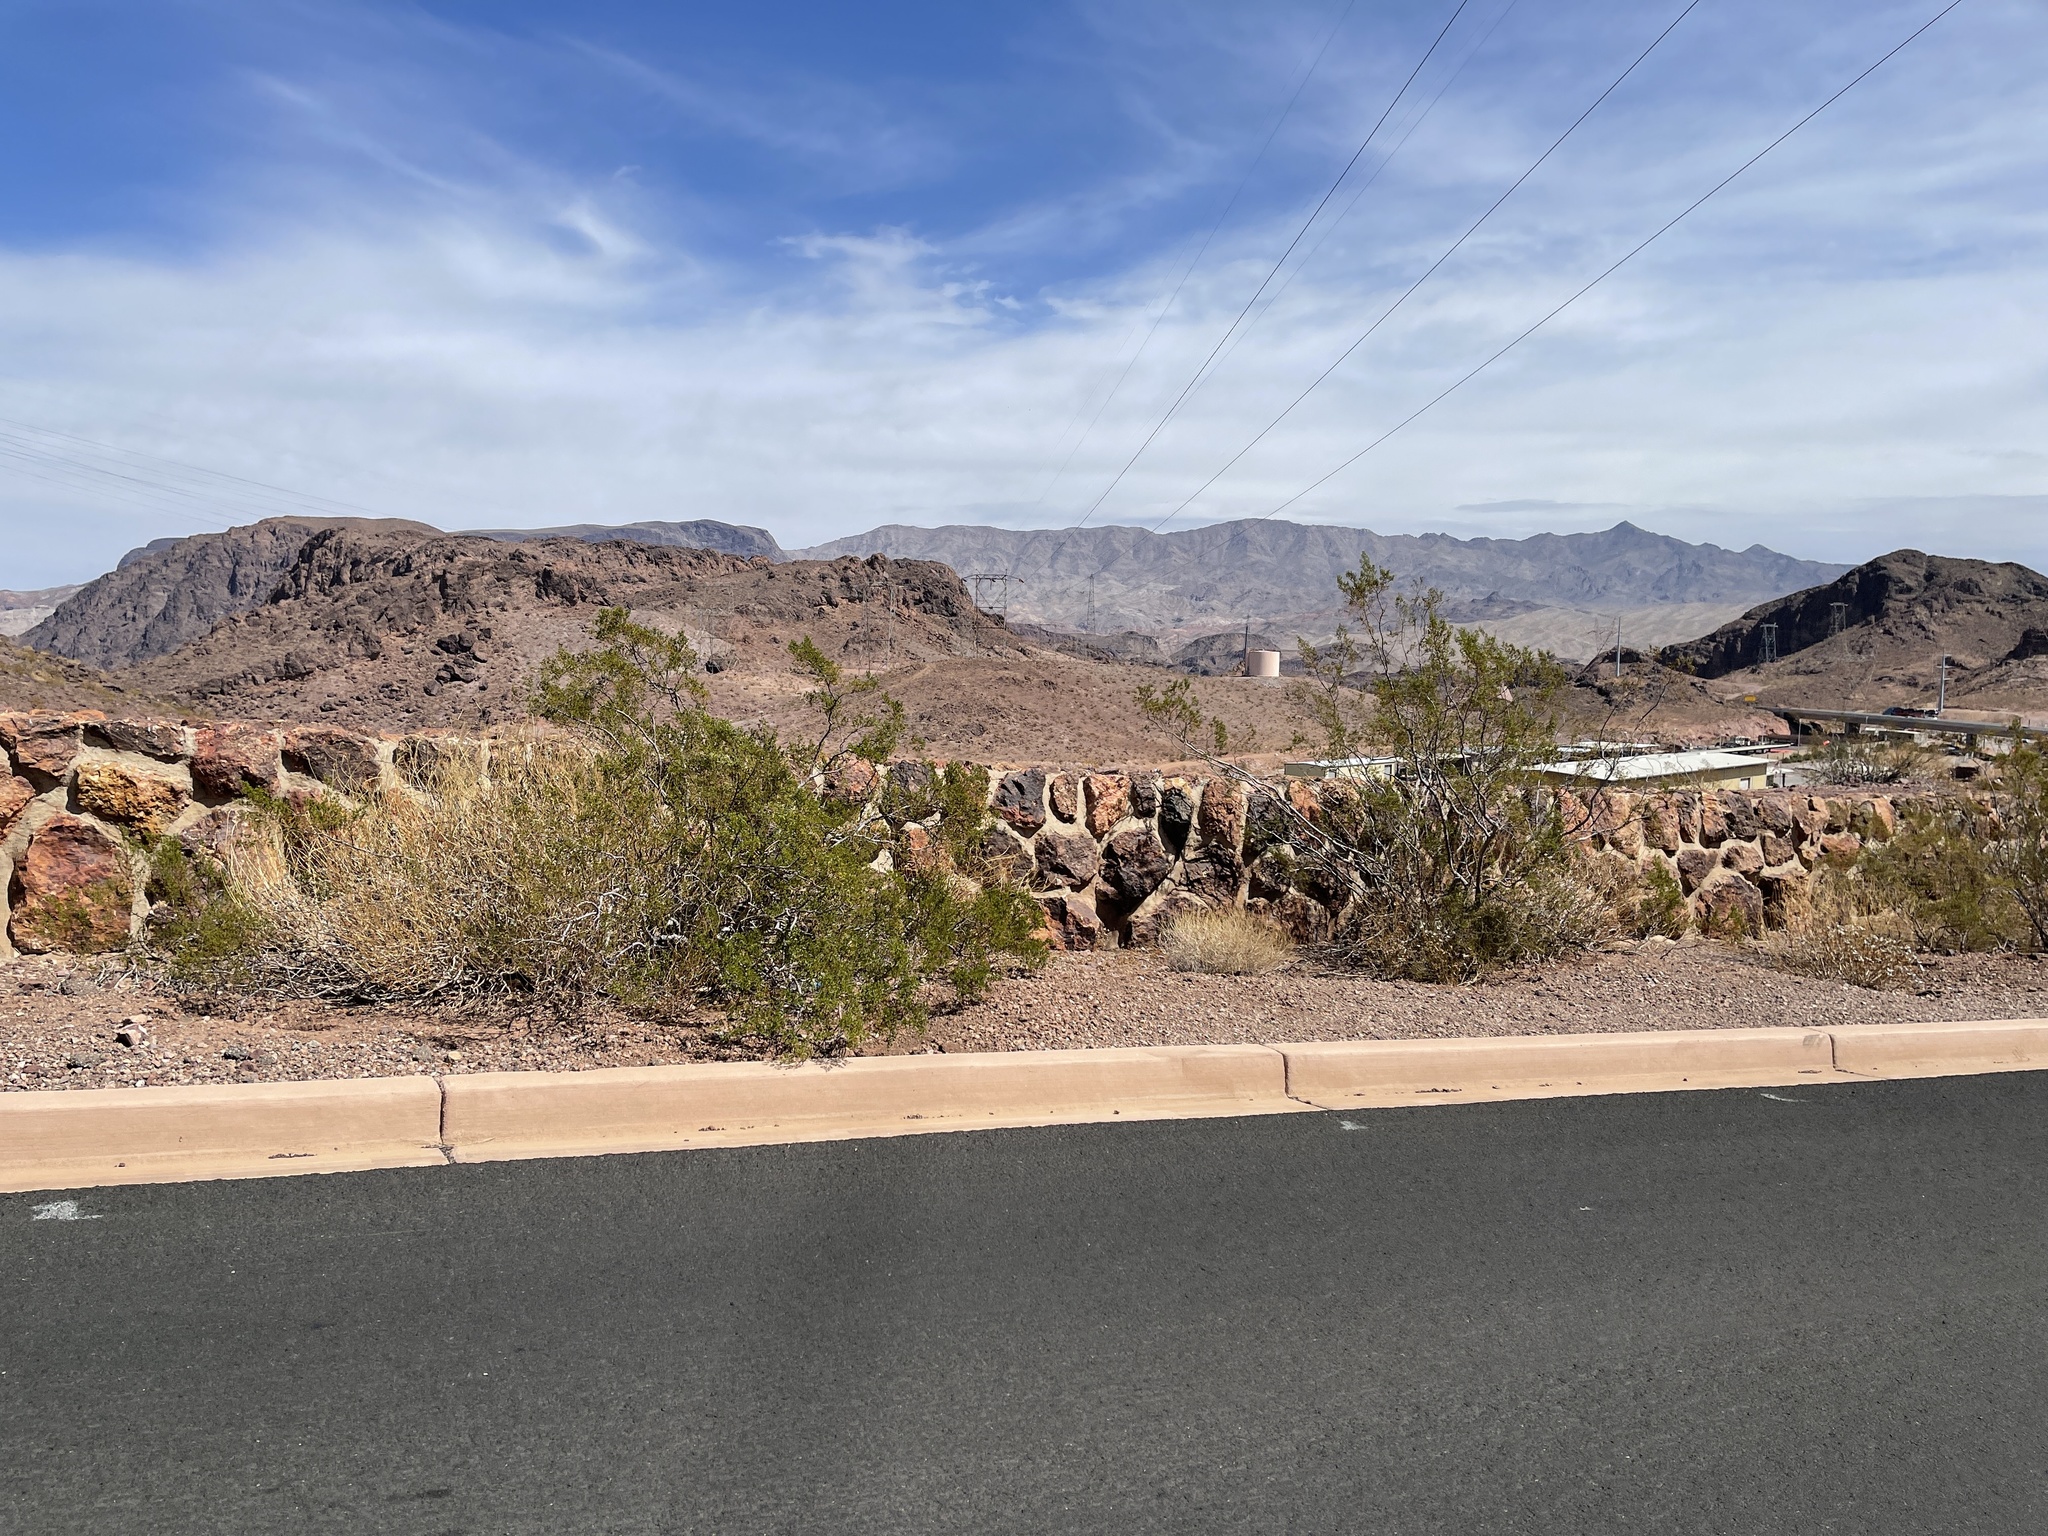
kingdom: Plantae
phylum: Tracheophyta
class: Magnoliopsida
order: Zygophyllales
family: Zygophyllaceae
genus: Larrea
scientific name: Larrea tridentata
